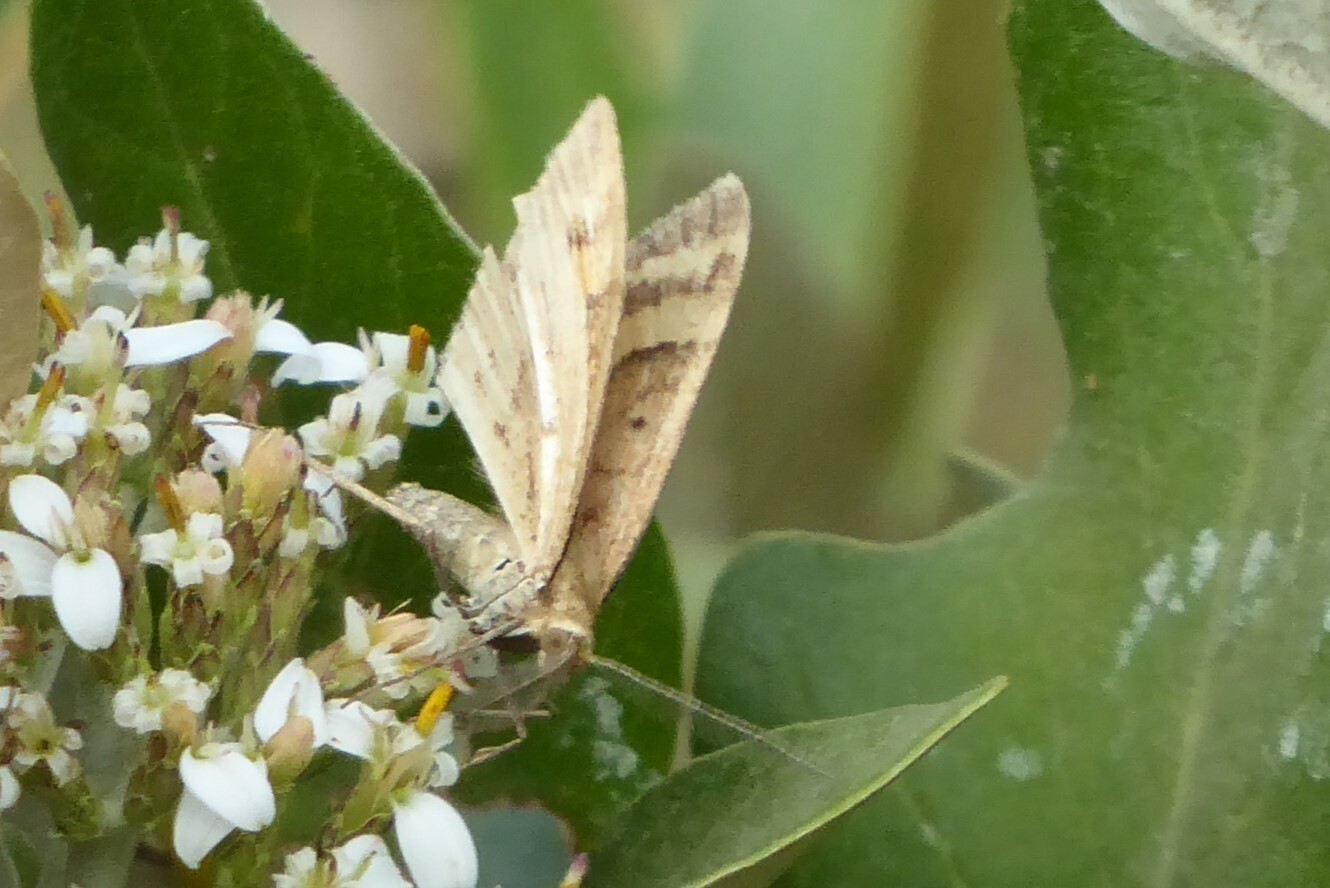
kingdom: Animalia
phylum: Arthropoda
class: Insecta
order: Lepidoptera
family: Geometridae
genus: Asaphodes
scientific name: Asaphodes abrogata
